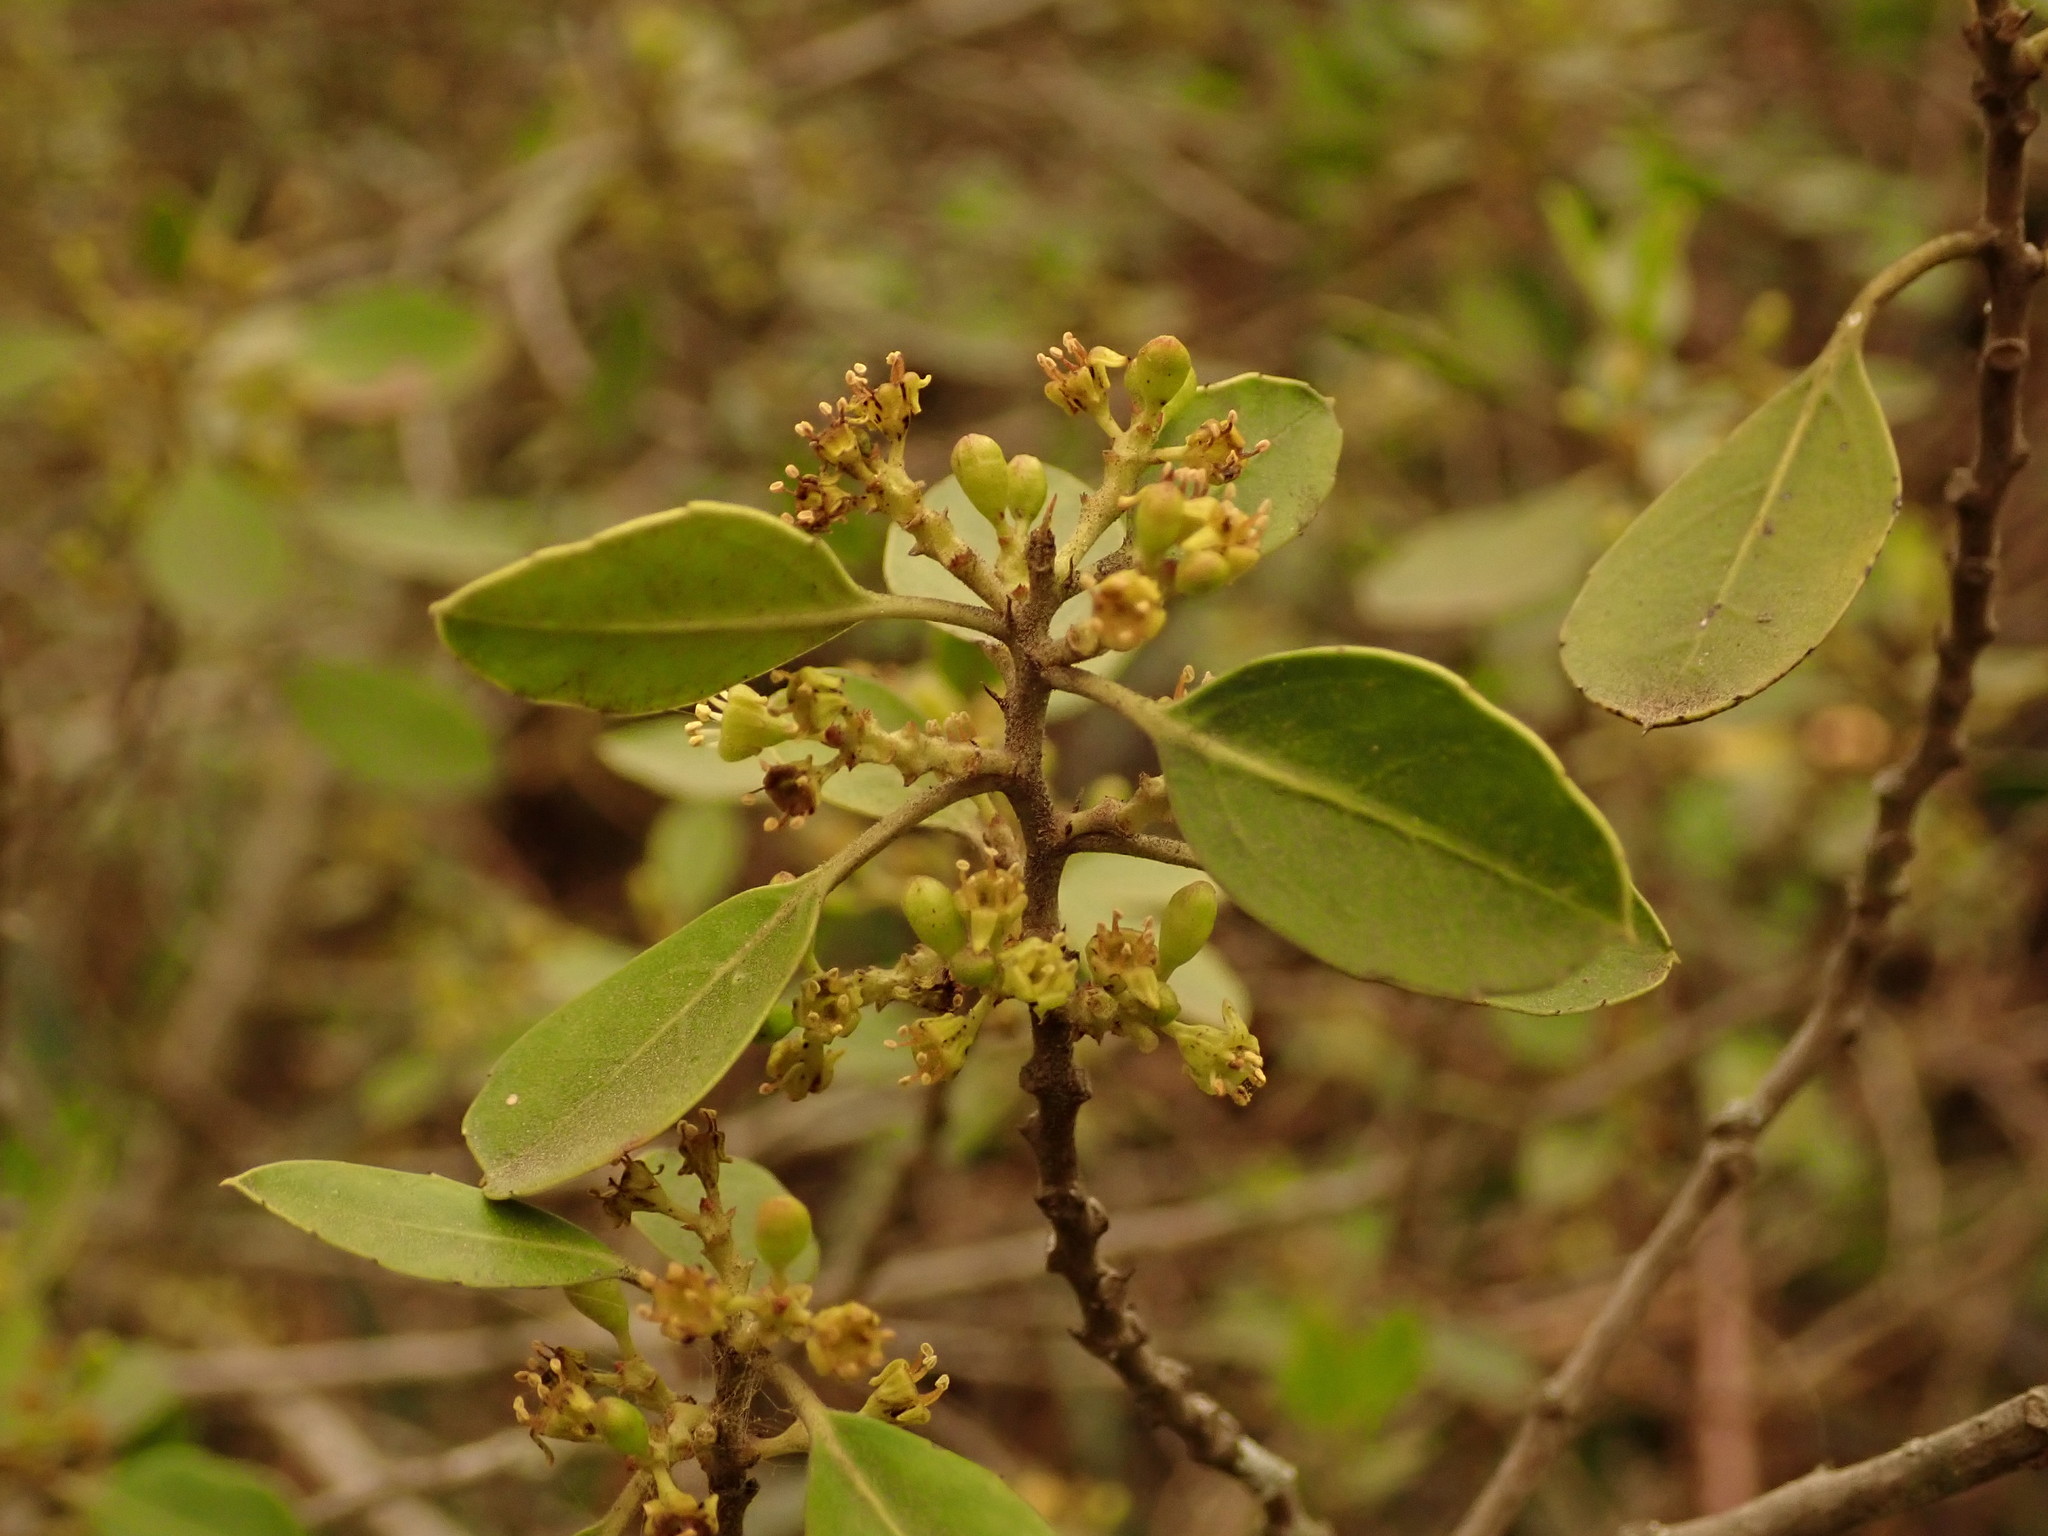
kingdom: Plantae
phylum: Tracheophyta
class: Magnoliopsida
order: Rosales
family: Rhamnaceae
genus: Rhamnus
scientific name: Rhamnus alaternus
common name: Mediterranean buckthorn
